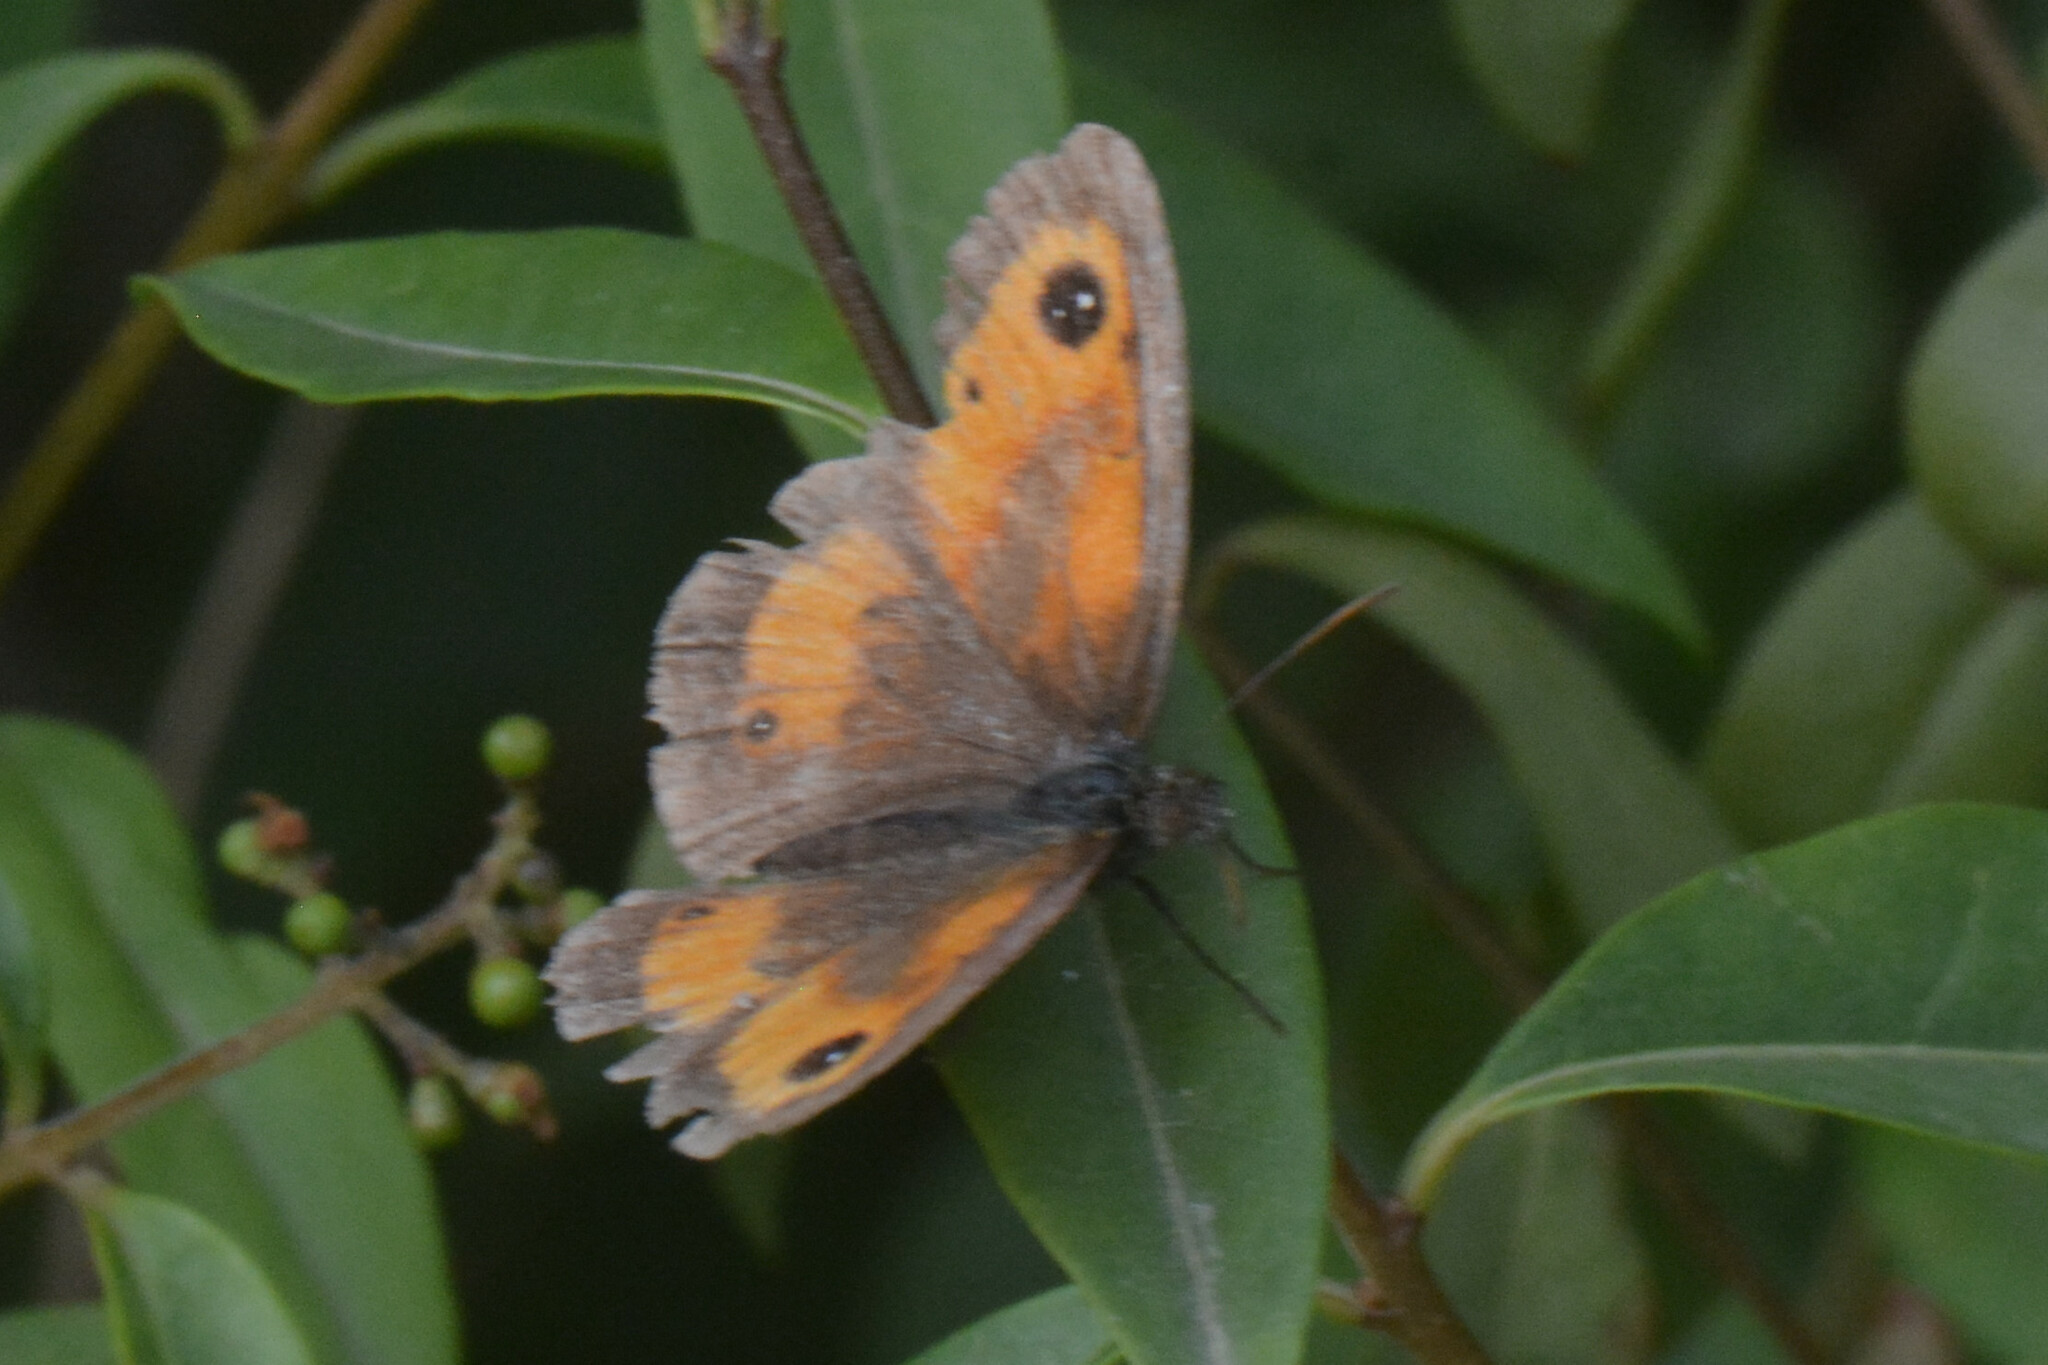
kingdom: Animalia
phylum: Arthropoda
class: Insecta
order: Lepidoptera
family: Nymphalidae
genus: Pyronia
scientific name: Pyronia tithonus
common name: Gatekeeper
